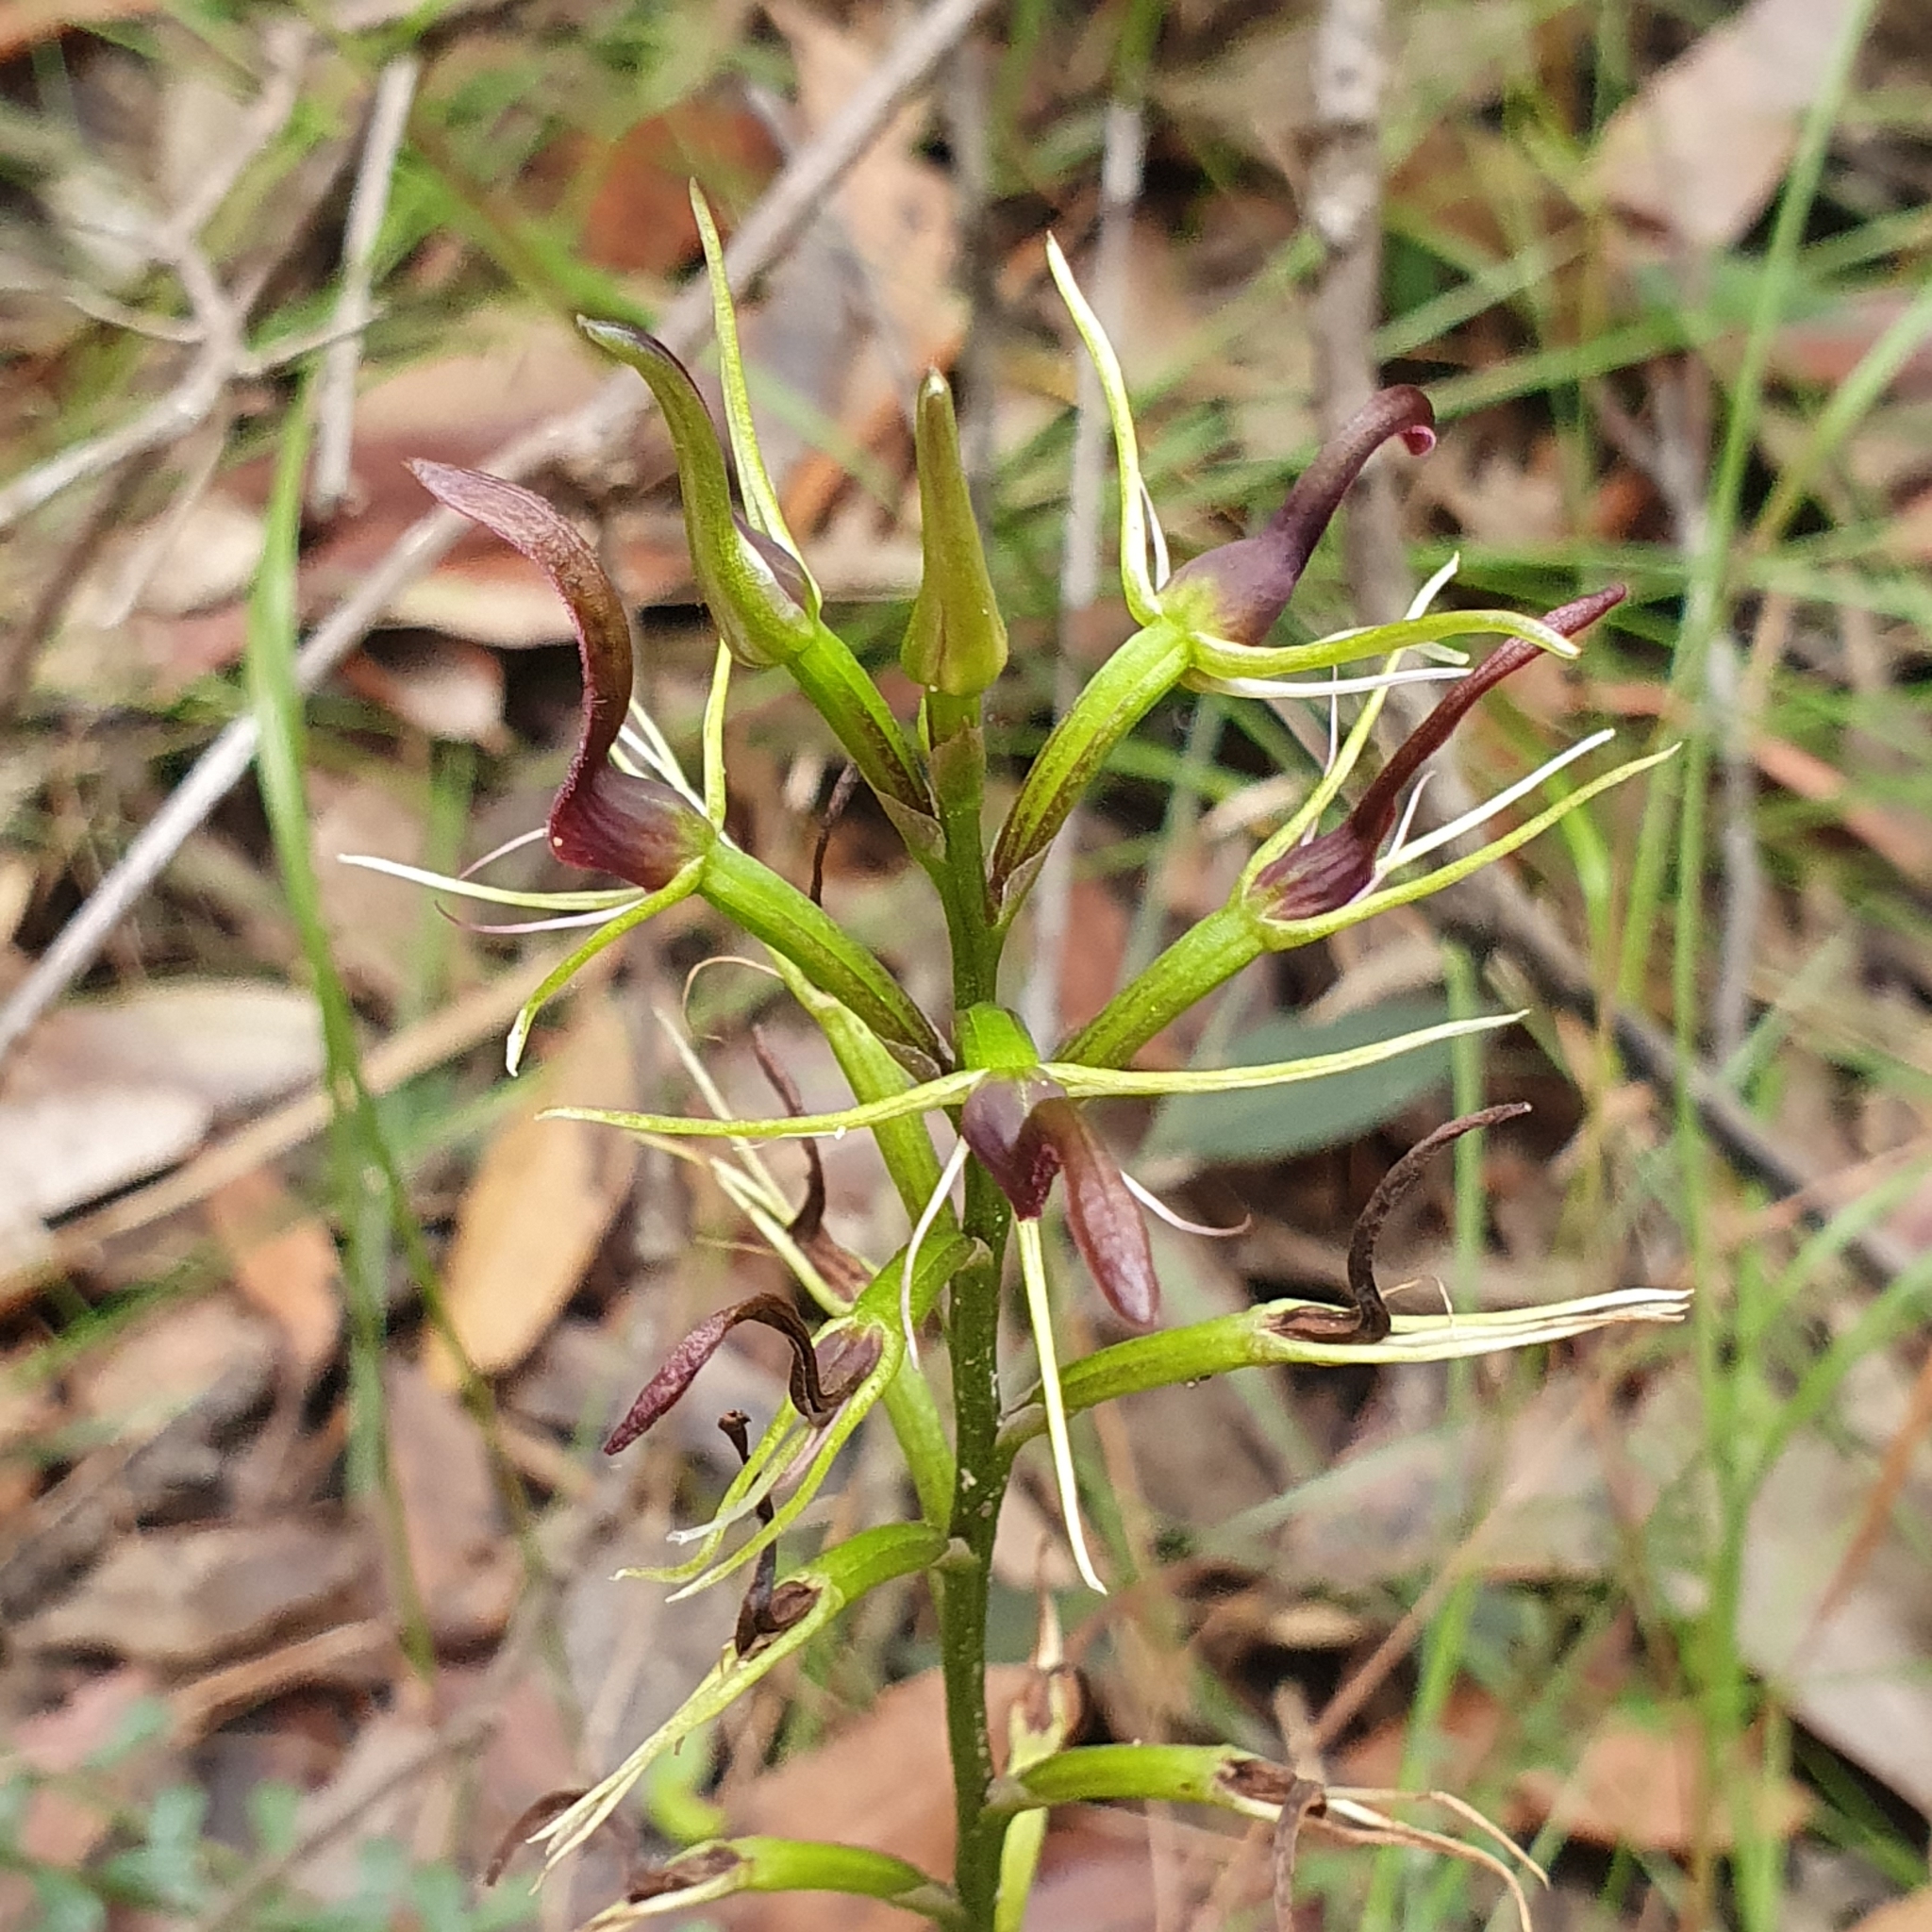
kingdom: Plantae
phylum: Tracheophyta
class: Liliopsida
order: Asparagales
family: Orchidaceae
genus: Cryptostylis
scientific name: Cryptostylis leptochila
